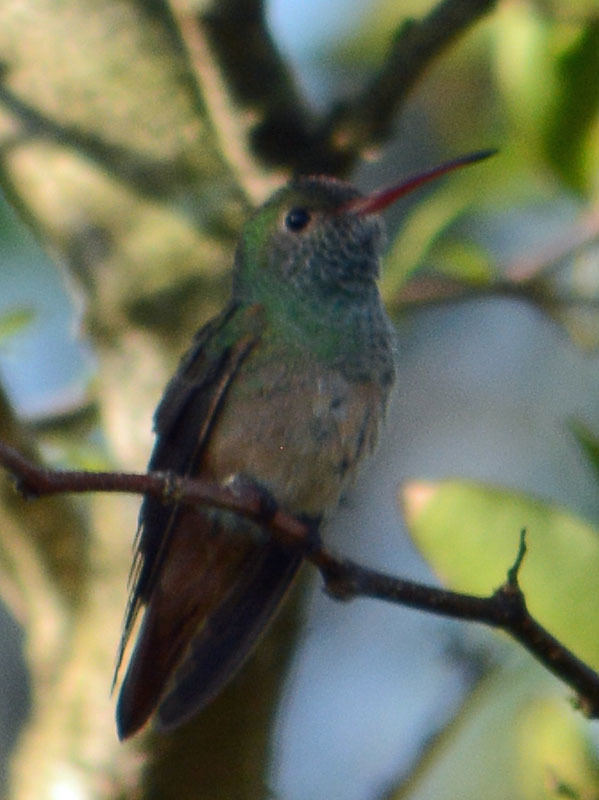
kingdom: Animalia
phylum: Chordata
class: Aves
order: Apodiformes
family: Trochilidae
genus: Amazilia
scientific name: Amazilia yucatanensis
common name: Buff-bellied hummingbird
